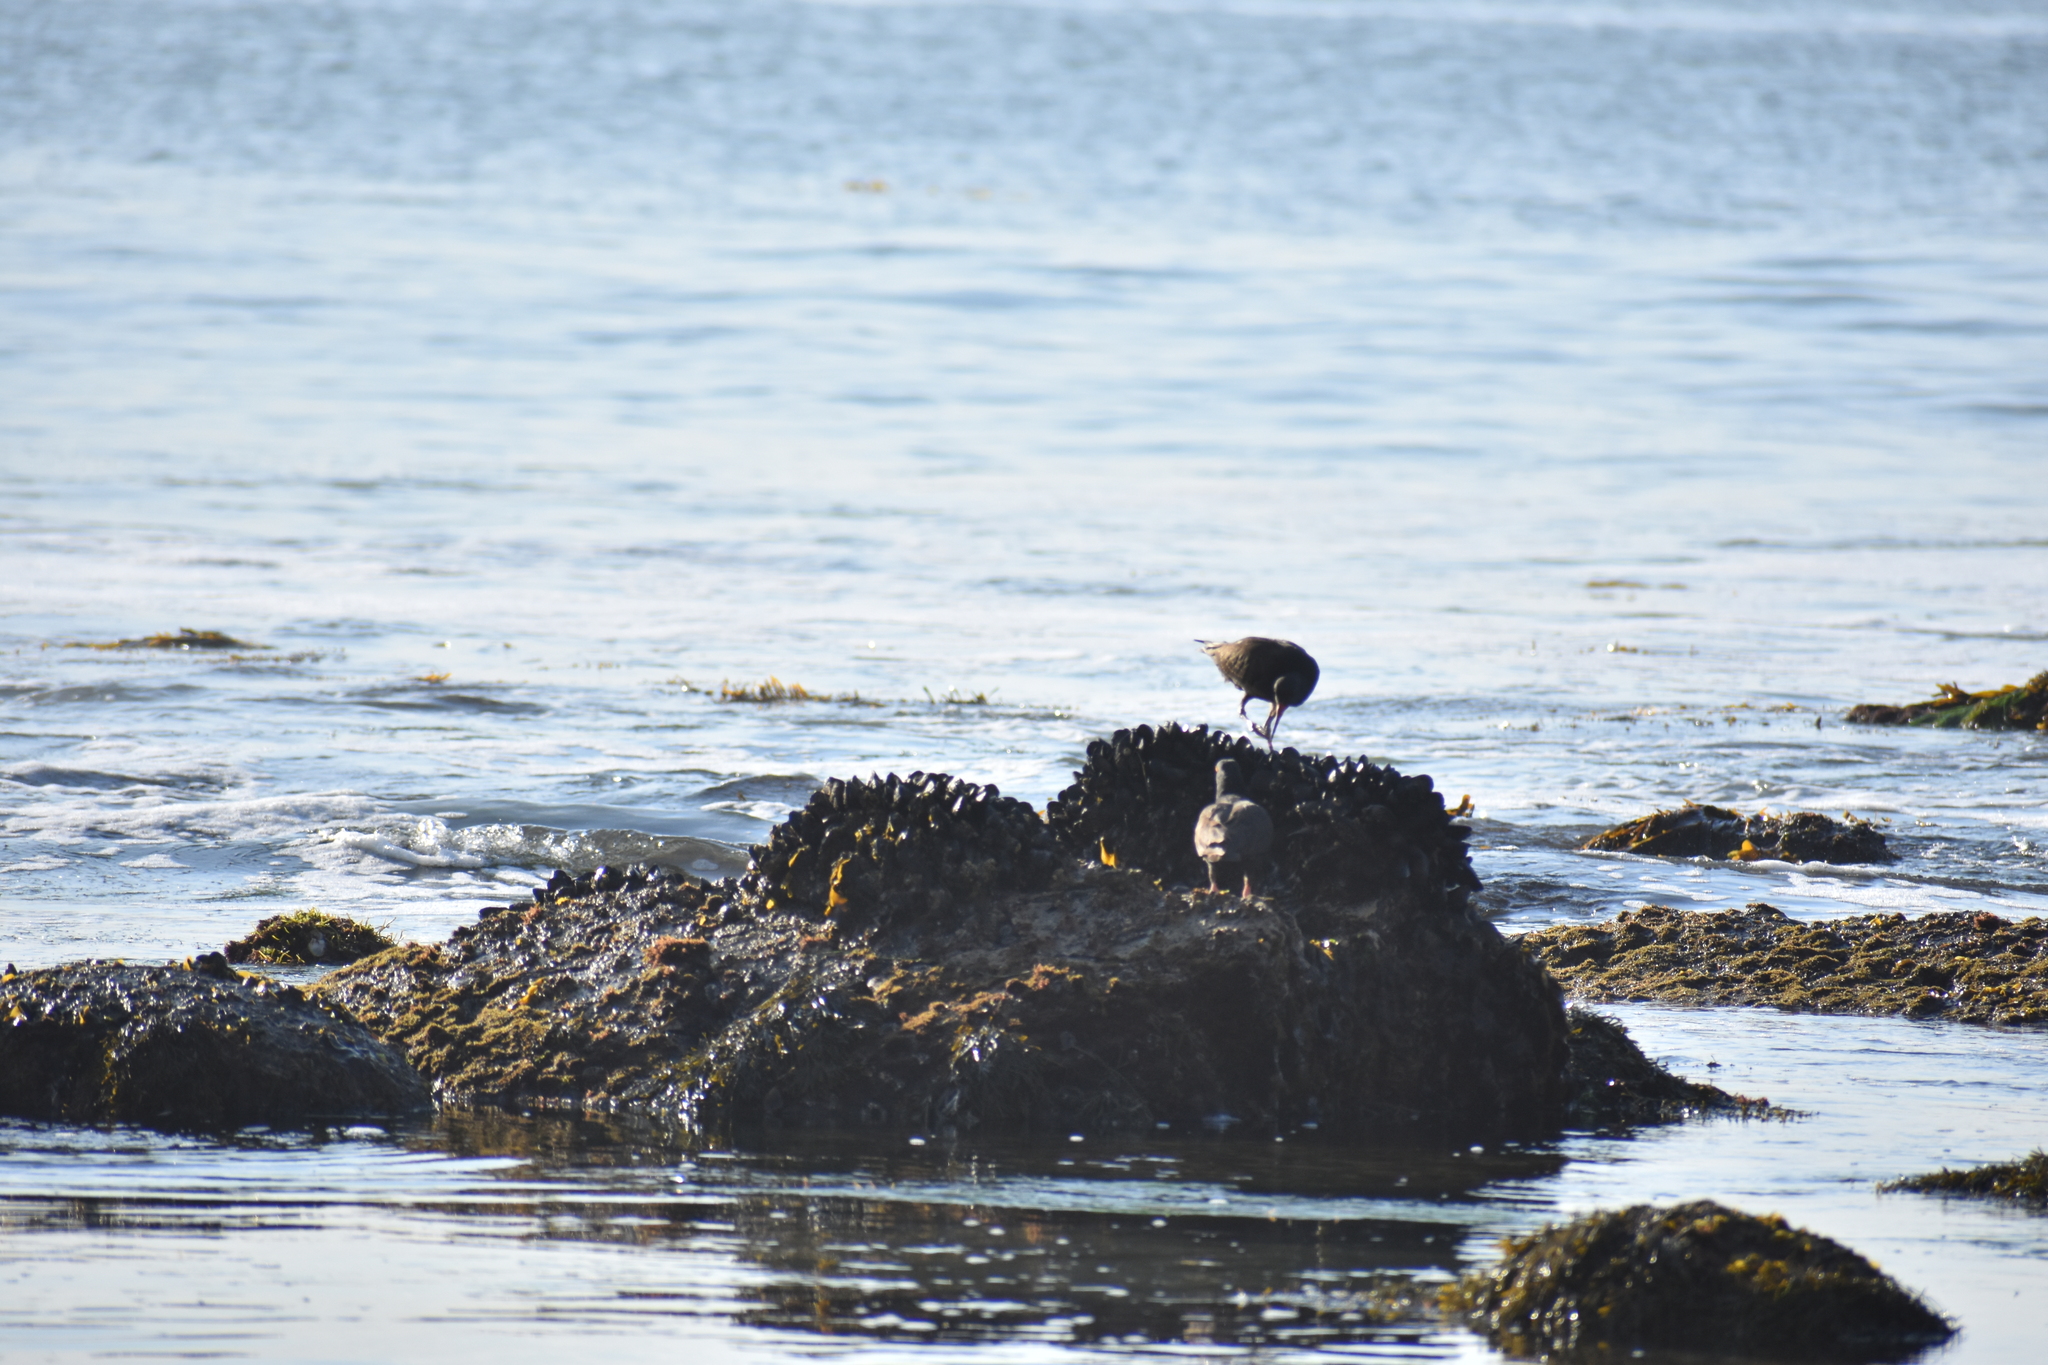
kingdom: Animalia
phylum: Chordata
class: Aves
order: Charadriiformes
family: Haematopodidae
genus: Haematopus
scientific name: Haematopus bachmani
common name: Black oystercatcher
